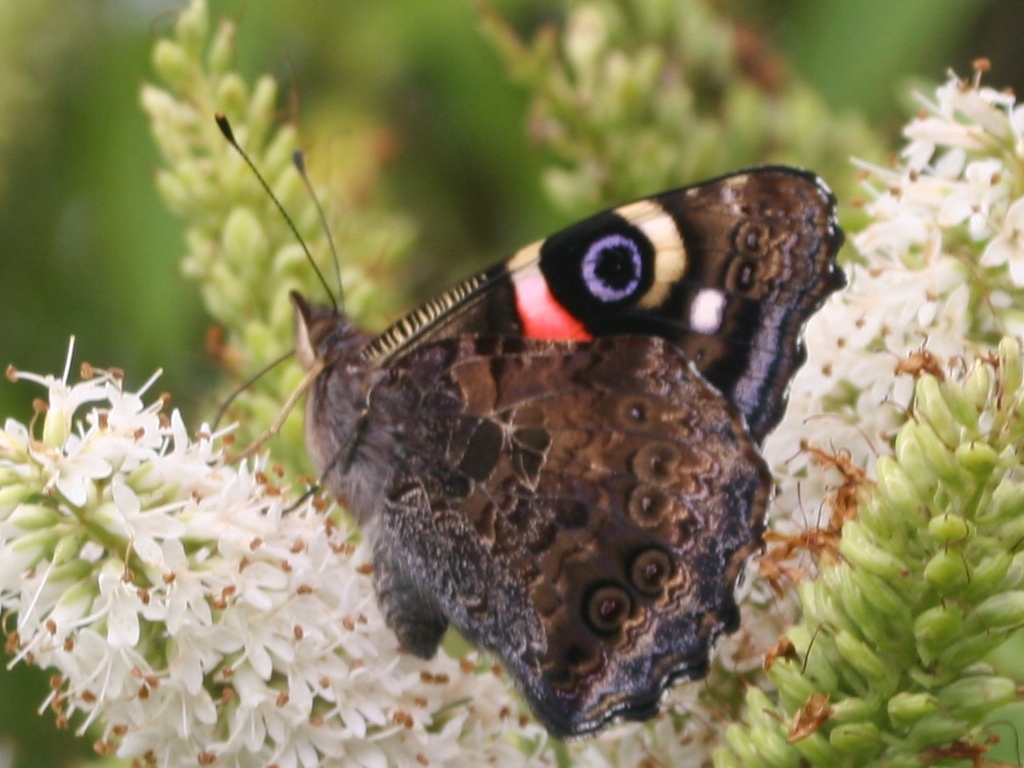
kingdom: Animalia
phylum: Arthropoda
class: Insecta
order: Lepidoptera
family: Nymphalidae
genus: Vanessa
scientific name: Vanessa gonerilla
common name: New zealand red admiral
